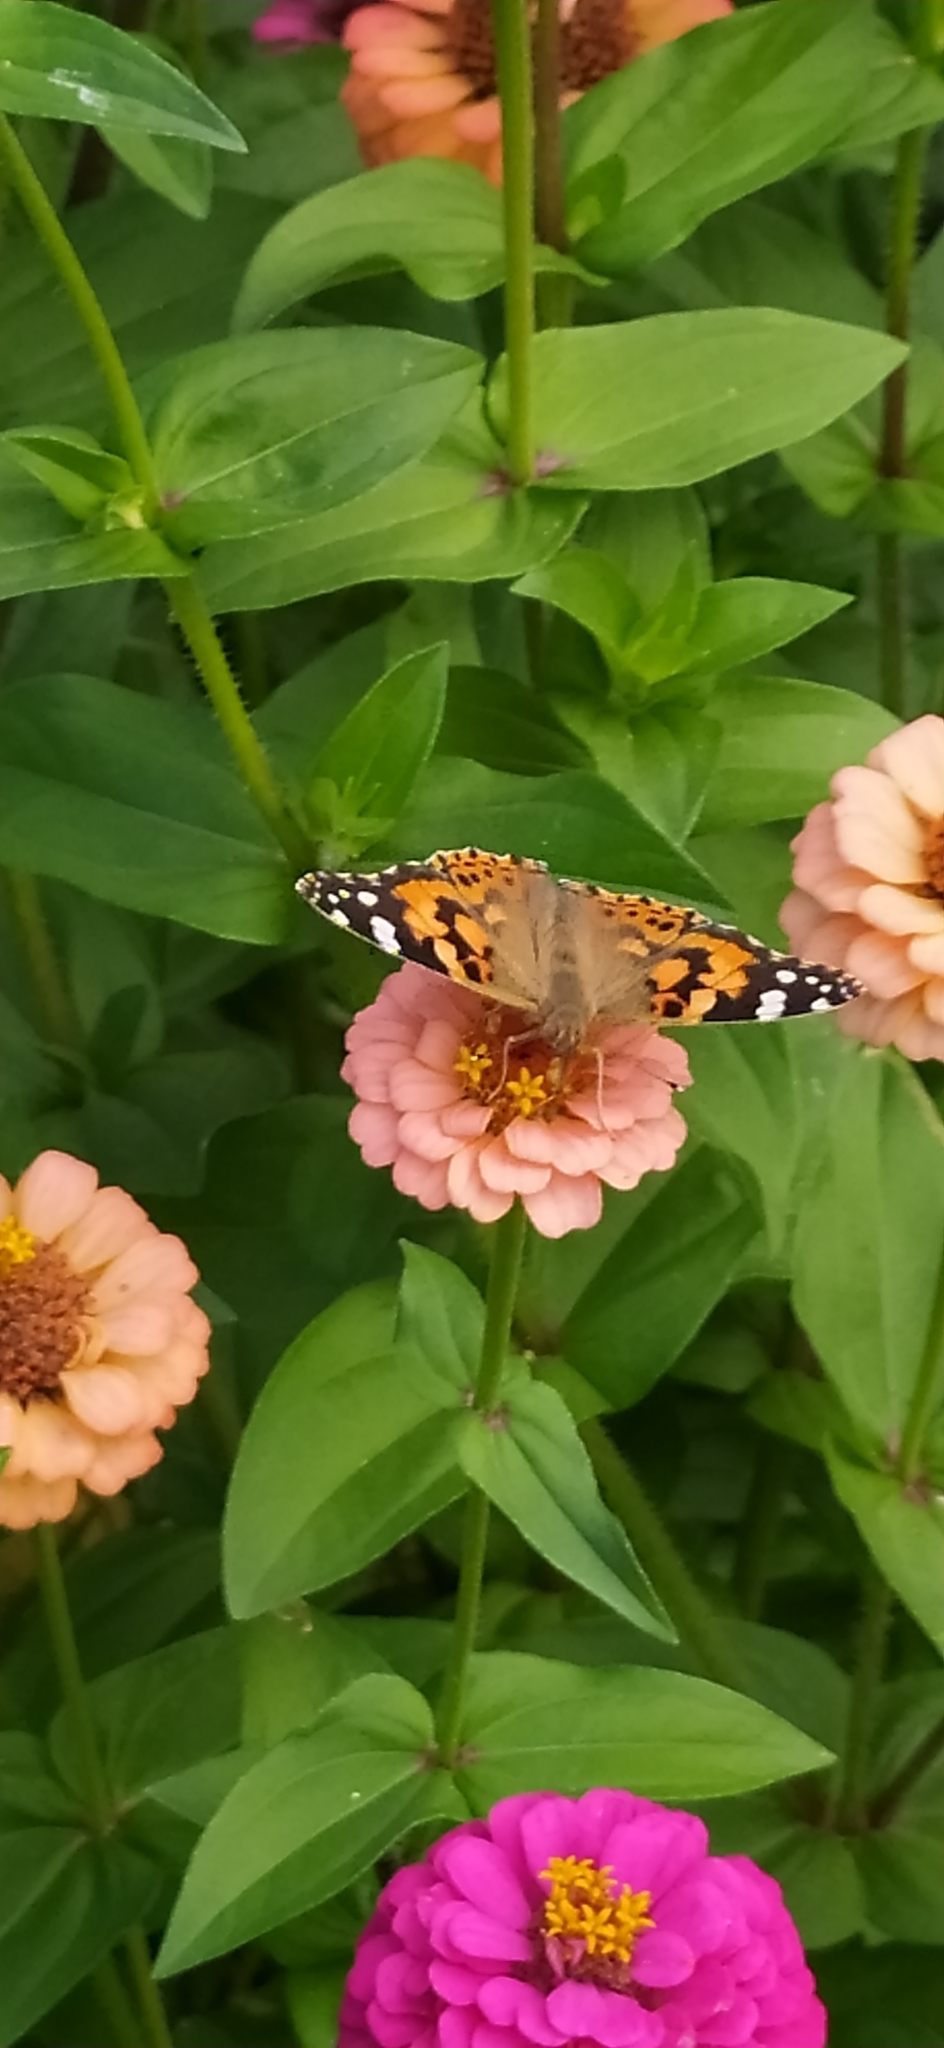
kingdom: Animalia
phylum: Arthropoda
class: Insecta
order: Lepidoptera
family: Nymphalidae
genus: Vanessa
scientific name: Vanessa cardui
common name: Painted lady
